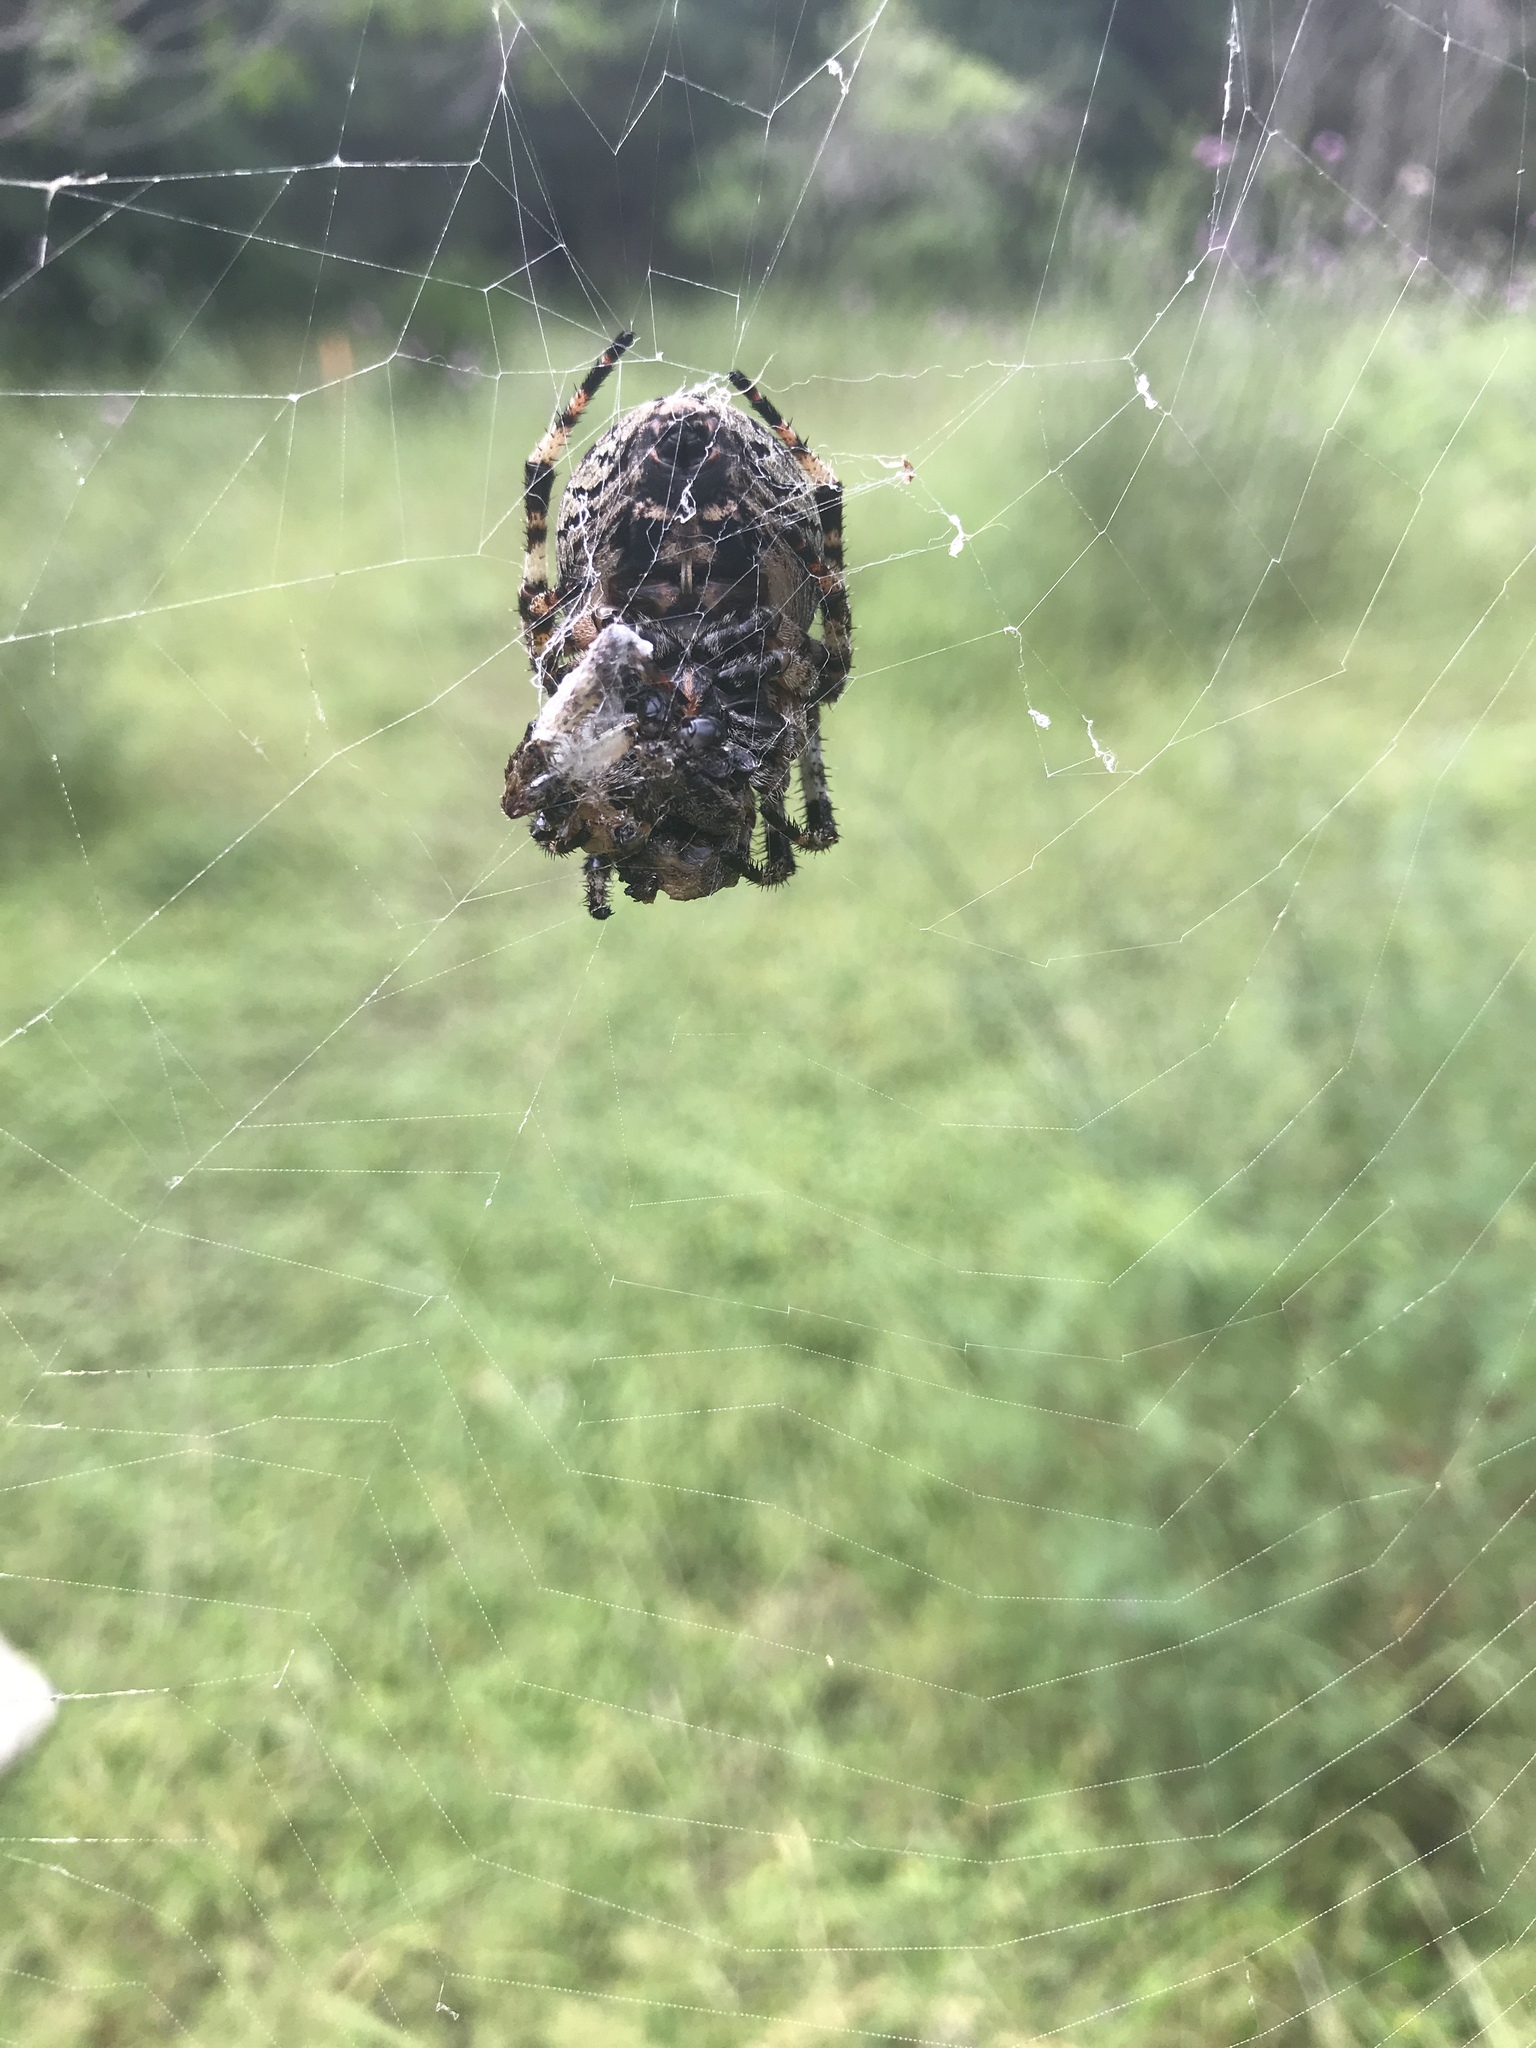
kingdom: Animalia
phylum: Arthropoda
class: Arachnida
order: Araneae
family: Araneidae
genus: Araneus
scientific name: Araneus bicentenarius
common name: Giant lichen orbweaver
